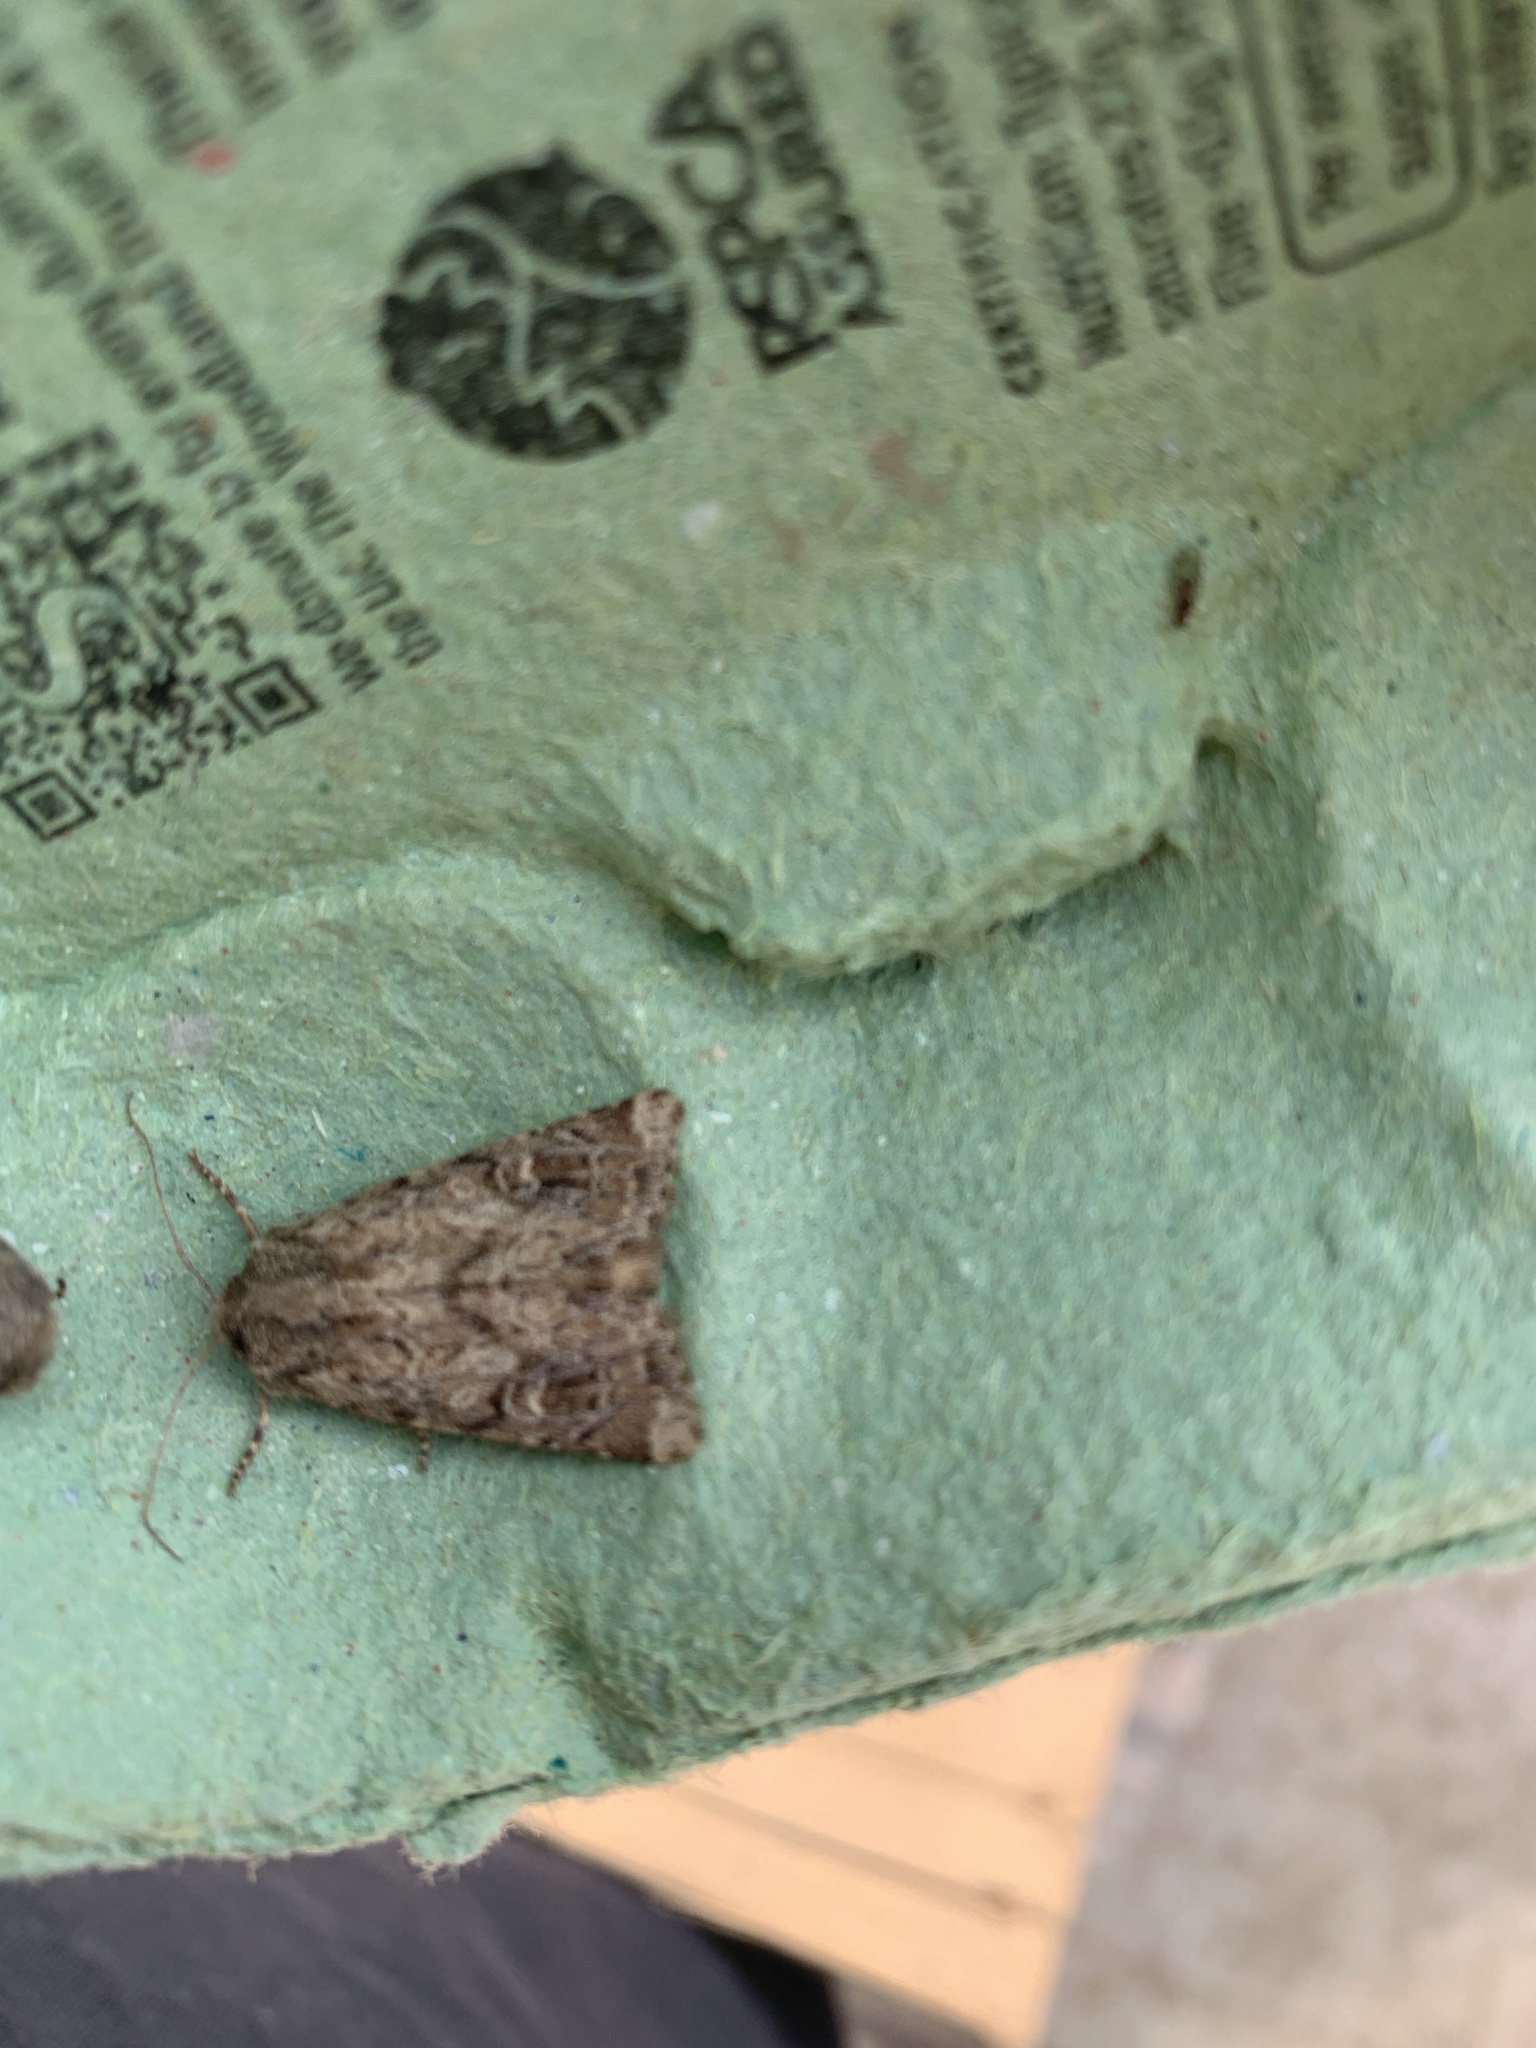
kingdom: Animalia
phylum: Arthropoda
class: Insecta
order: Lepidoptera
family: Noctuidae
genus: Luperina
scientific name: Luperina testacea
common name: Flounced rustic
